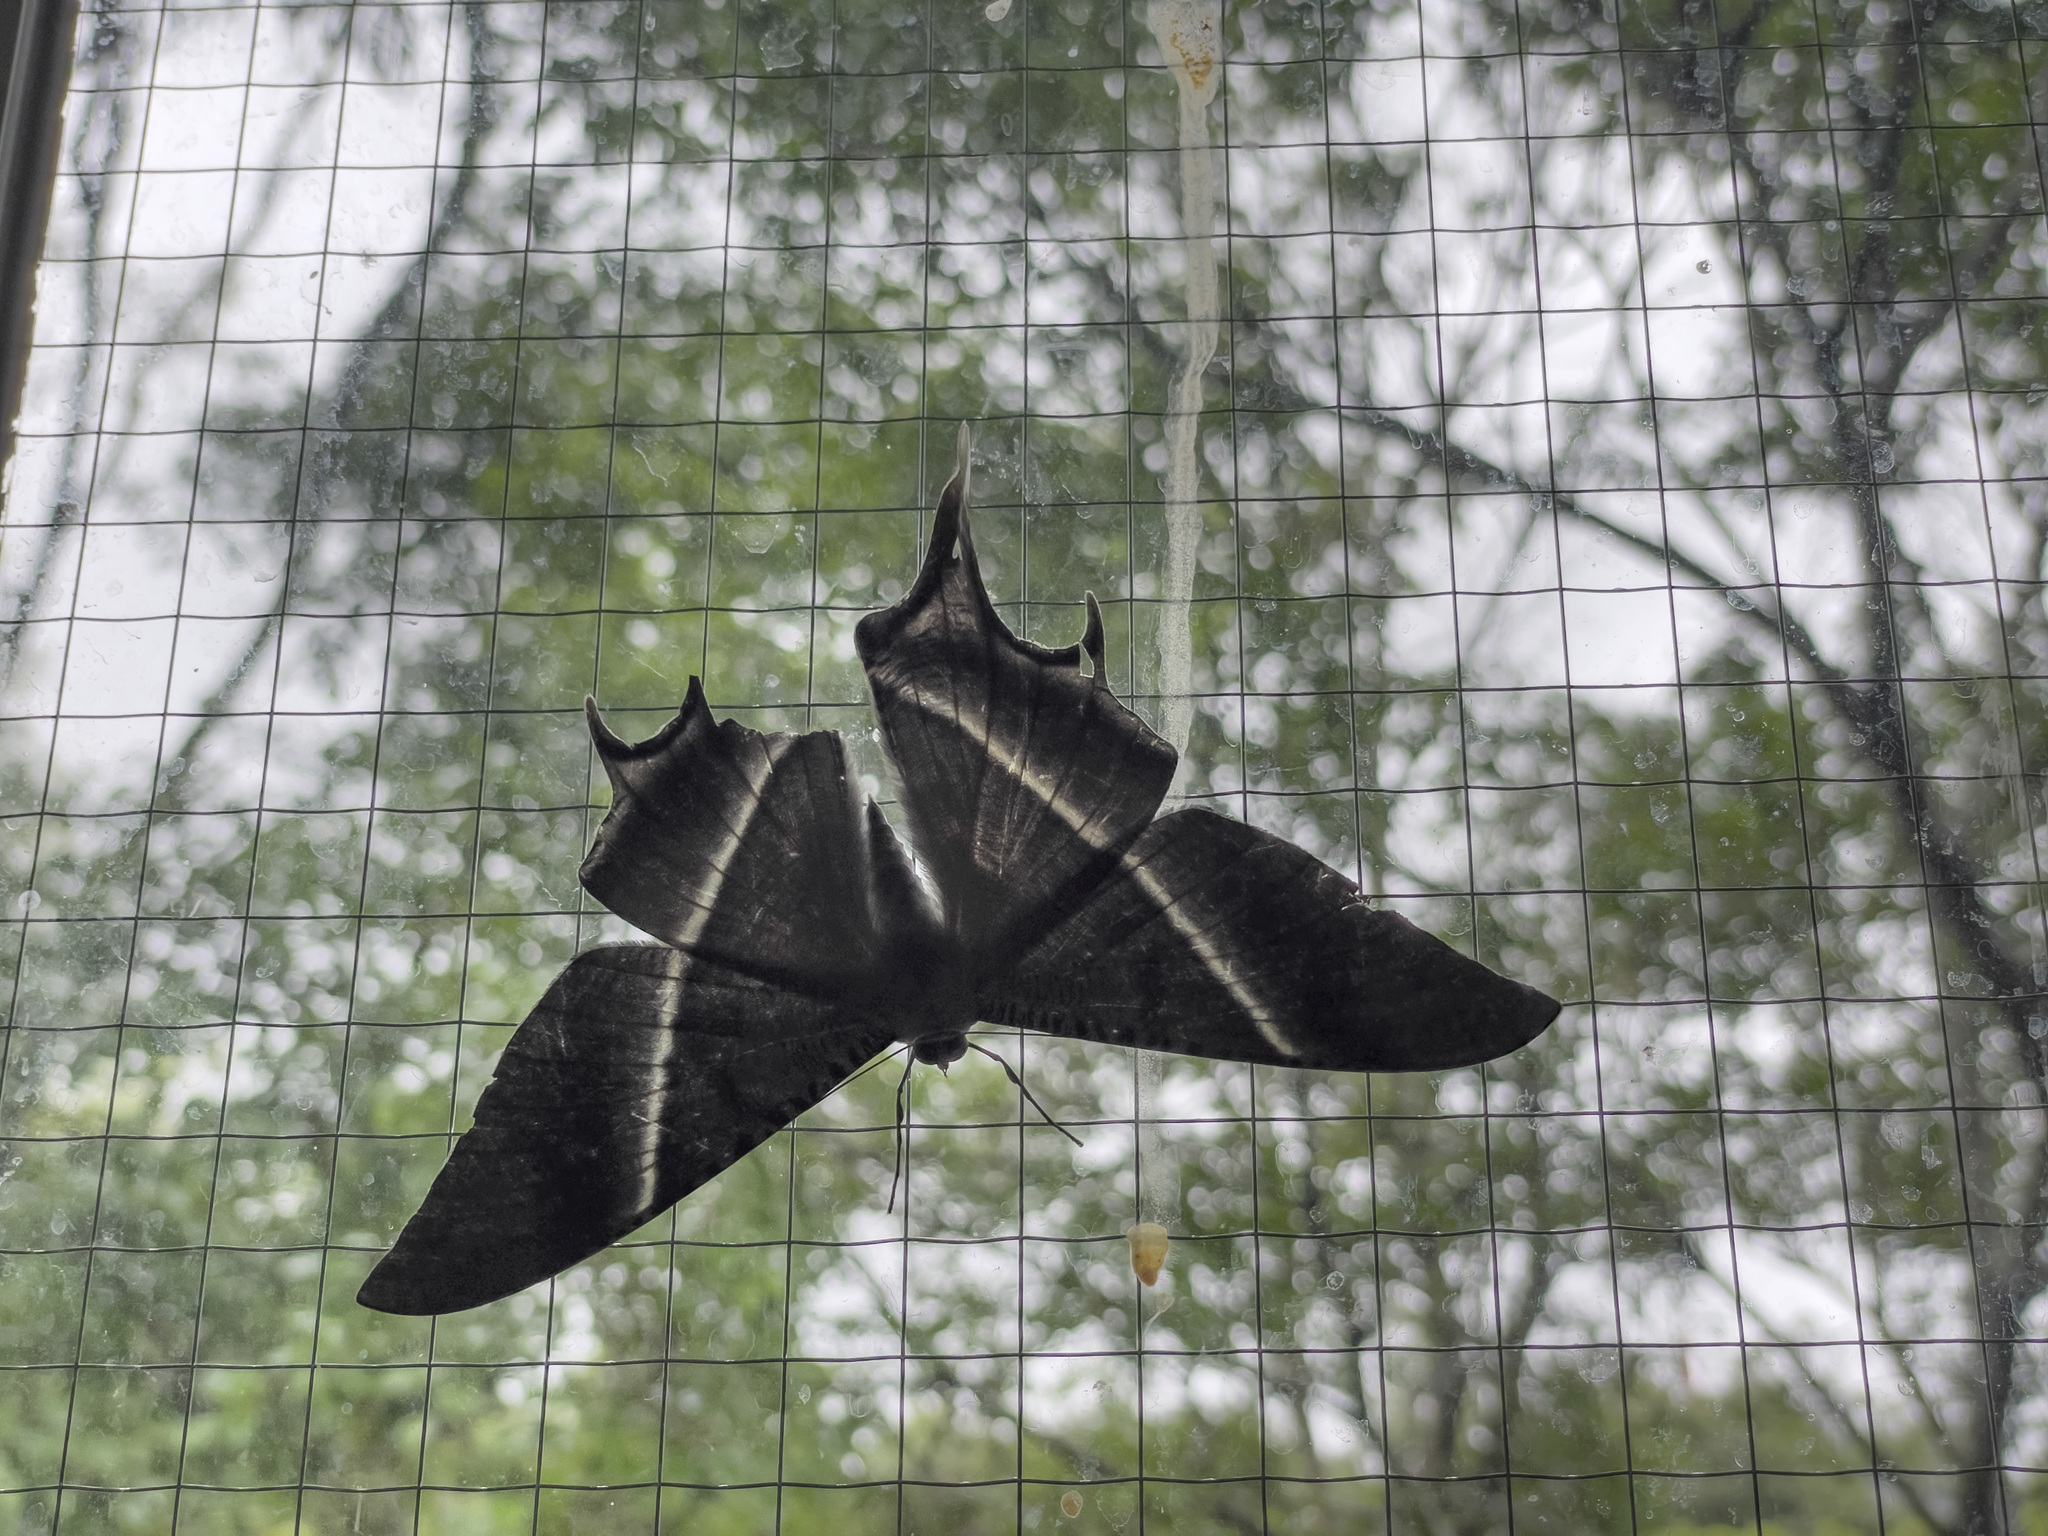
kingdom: Animalia
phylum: Arthropoda
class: Insecta
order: Lepidoptera
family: Uraniidae
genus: Lyssa
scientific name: Lyssa zampa
